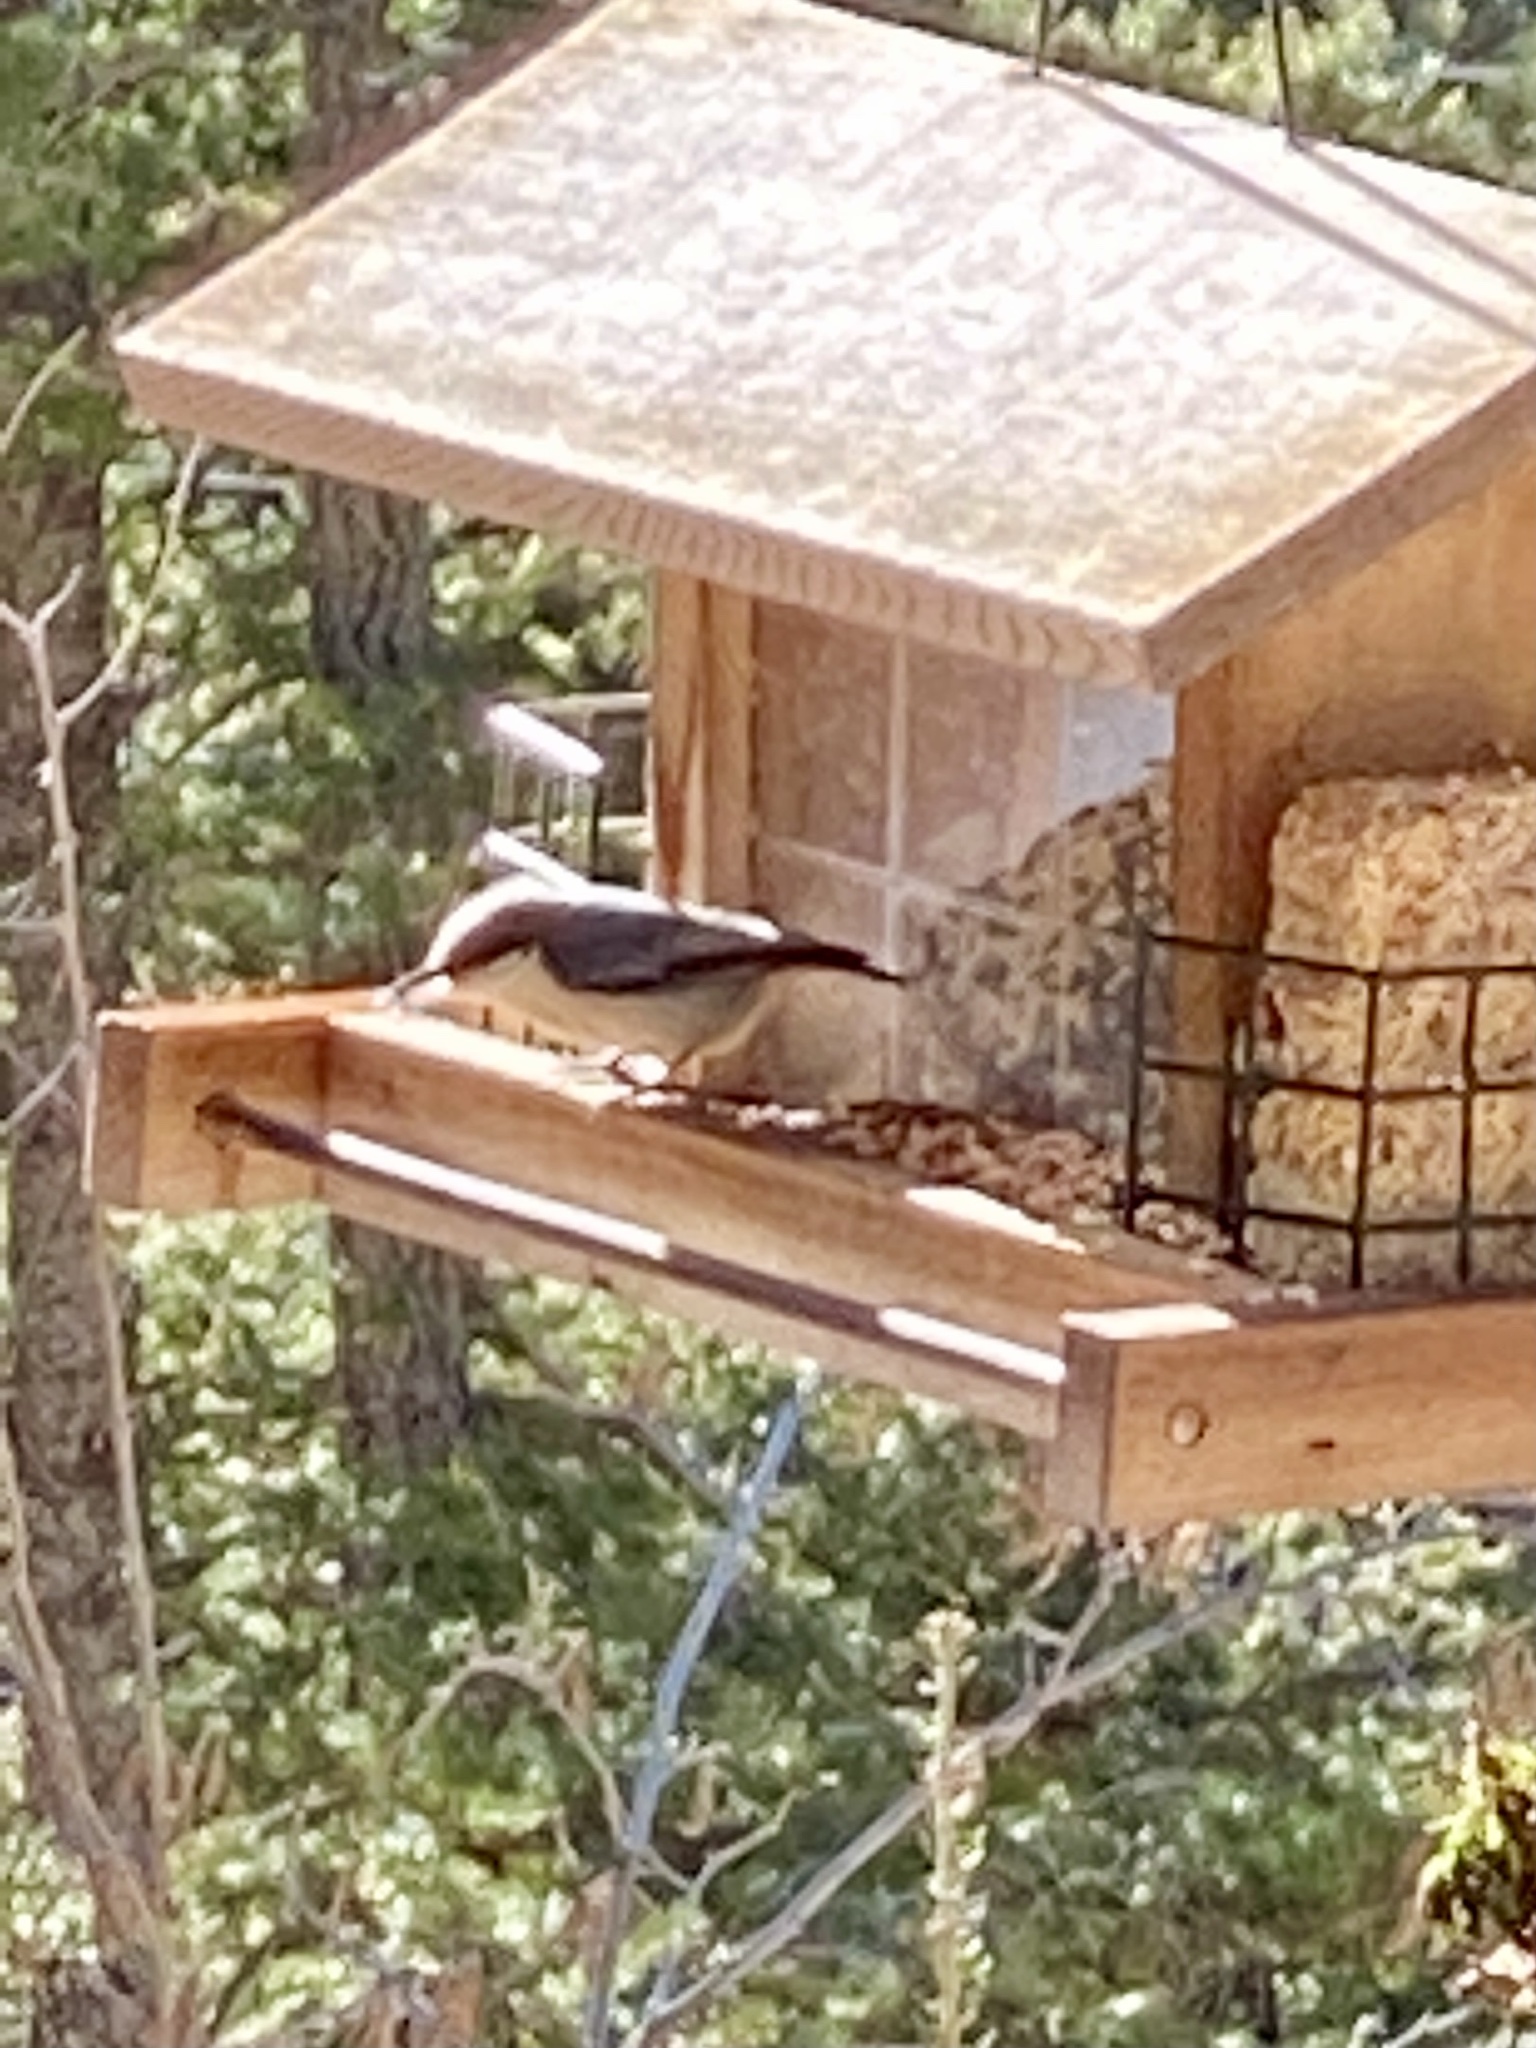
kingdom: Animalia
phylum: Chordata
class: Aves
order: Passeriformes
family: Sittidae
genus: Sitta
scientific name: Sitta pygmaea
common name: Pygmy nuthatch
